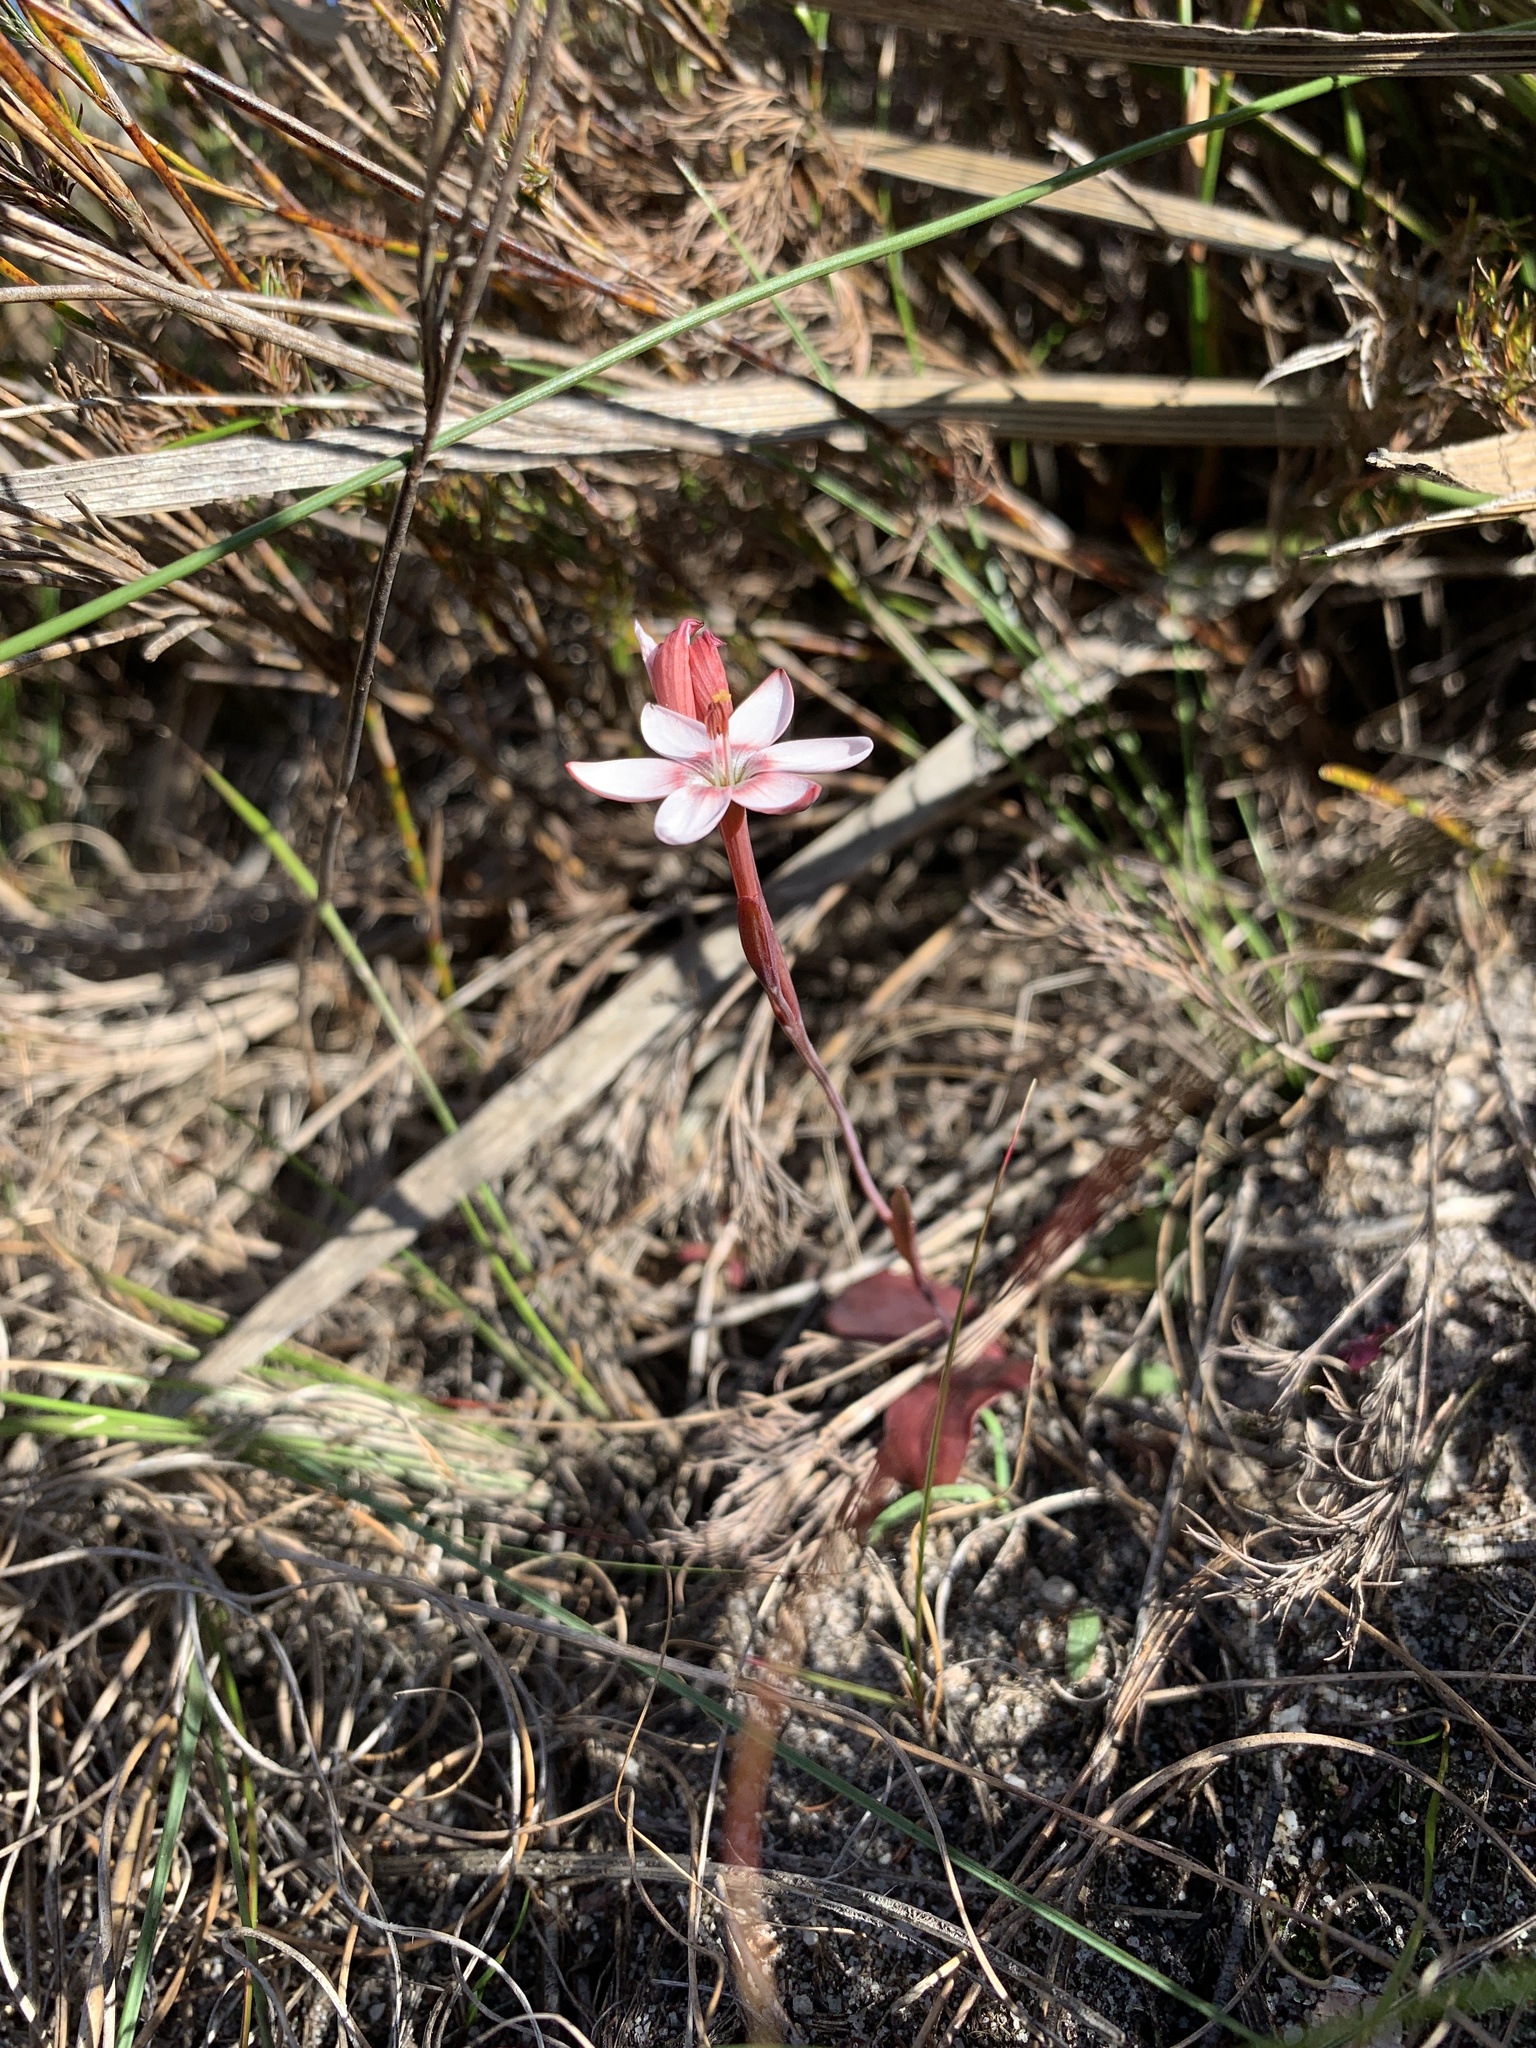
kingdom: Plantae
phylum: Tracheophyta
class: Liliopsida
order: Asparagales
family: Iridaceae
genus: Geissorhiza
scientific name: Geissorhiza ovata
